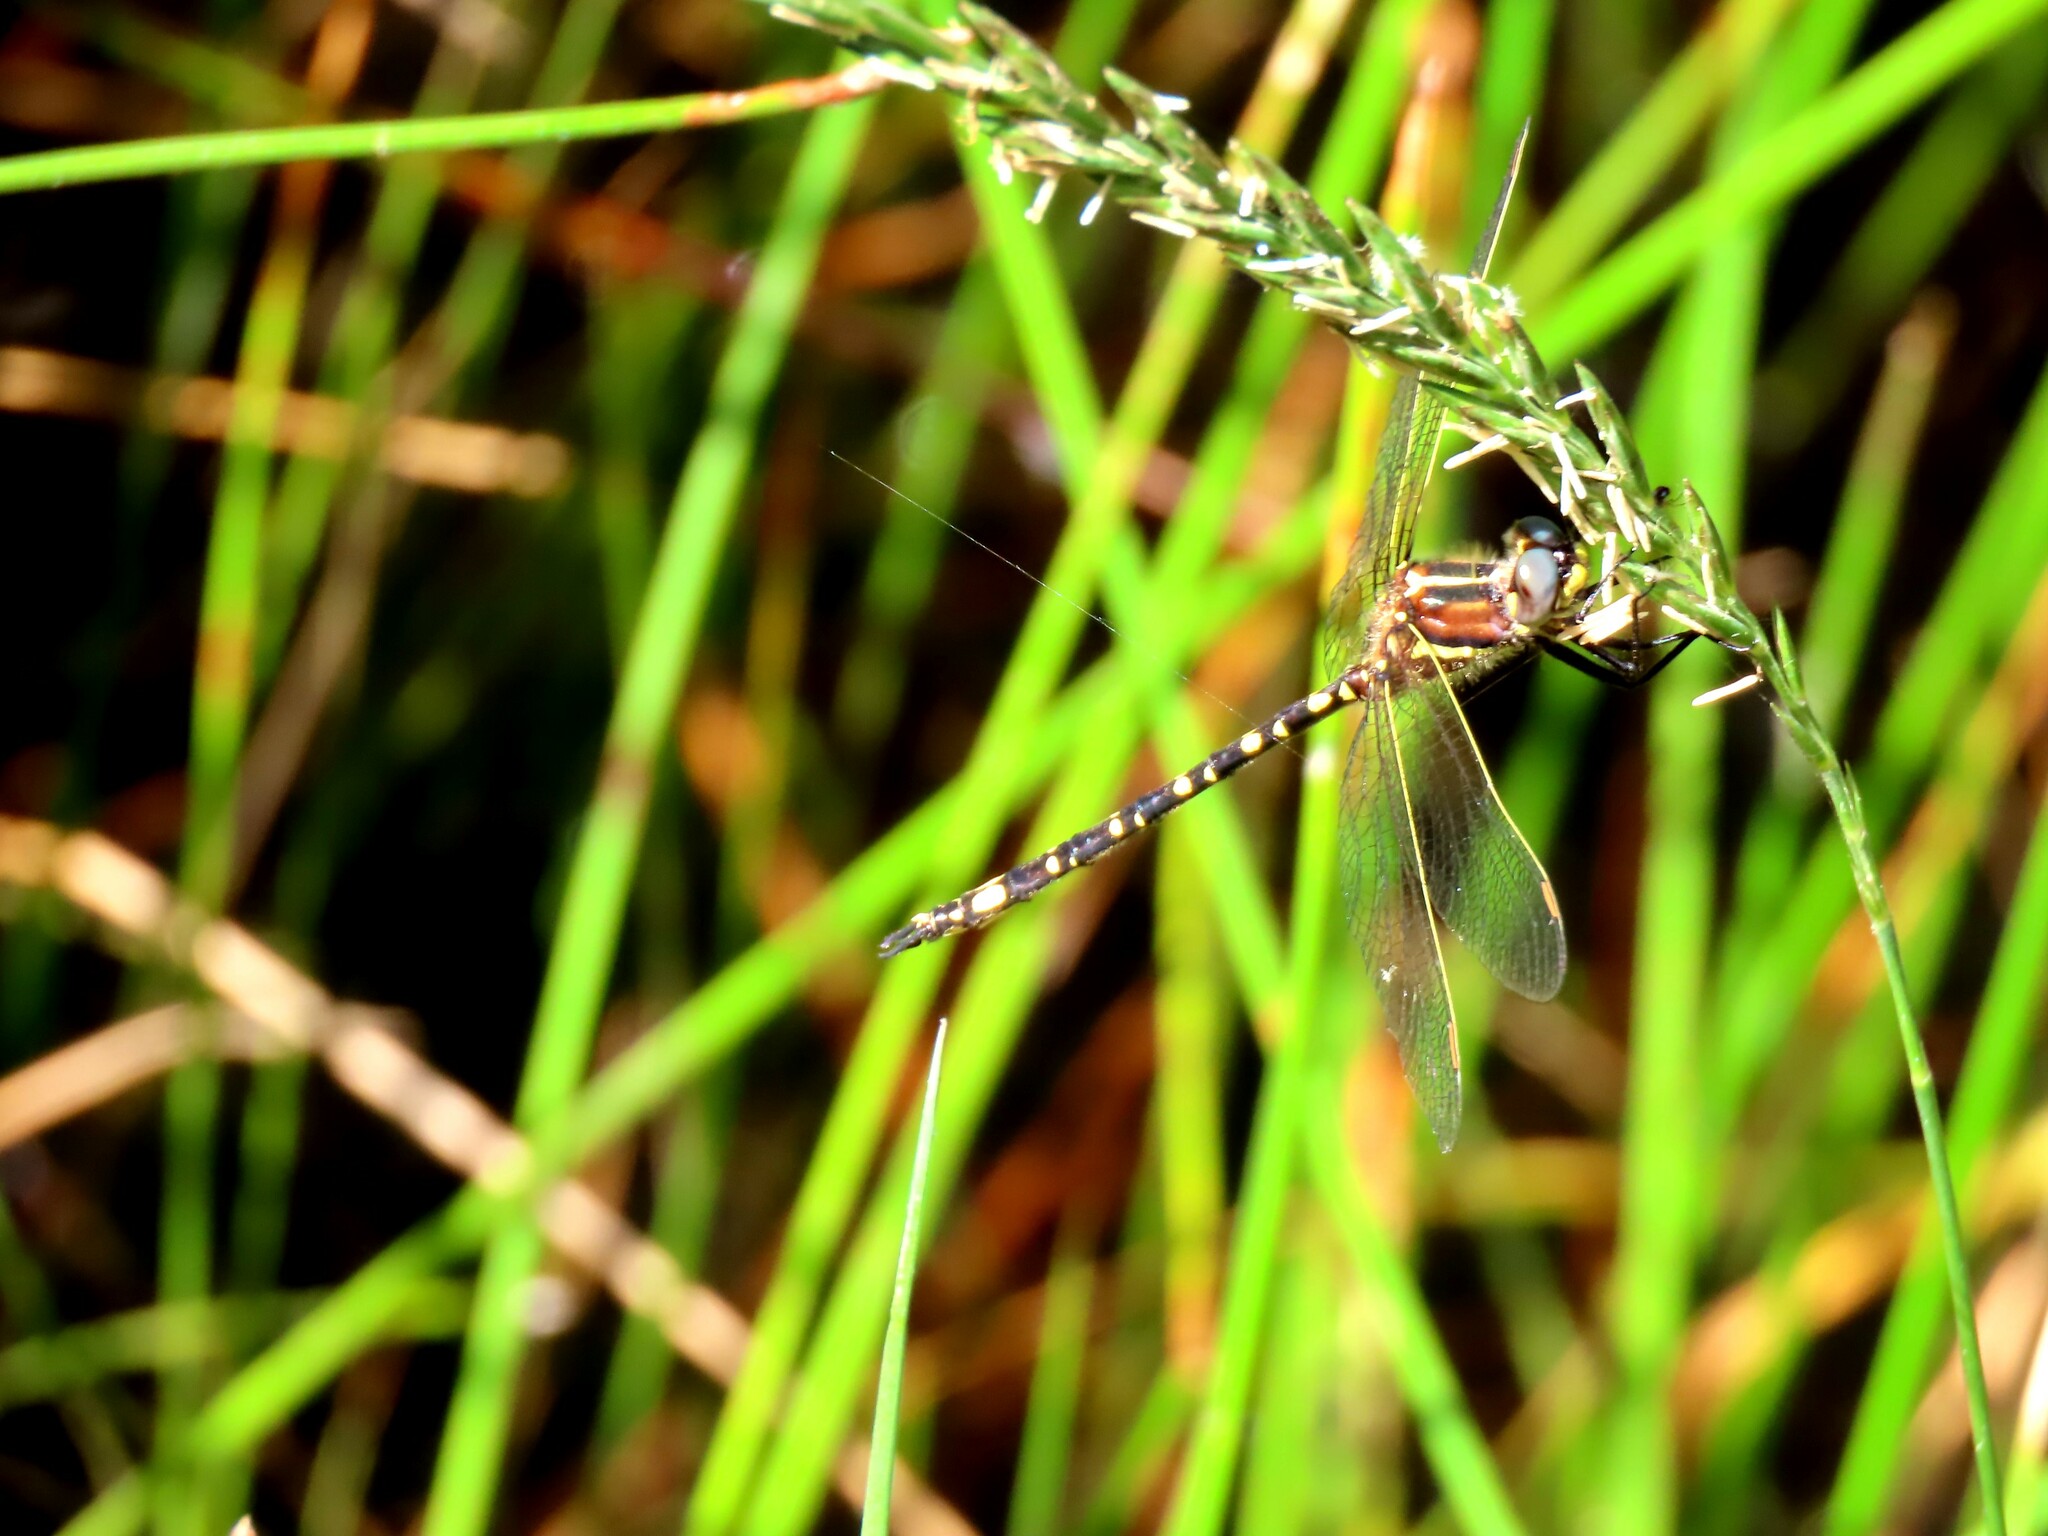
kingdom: Animalia
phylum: Arthropoda
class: Insecta
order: Odonata
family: Synthemistidae
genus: Synthemis
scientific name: Synthemis eustalacta
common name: Swamp tigertail
